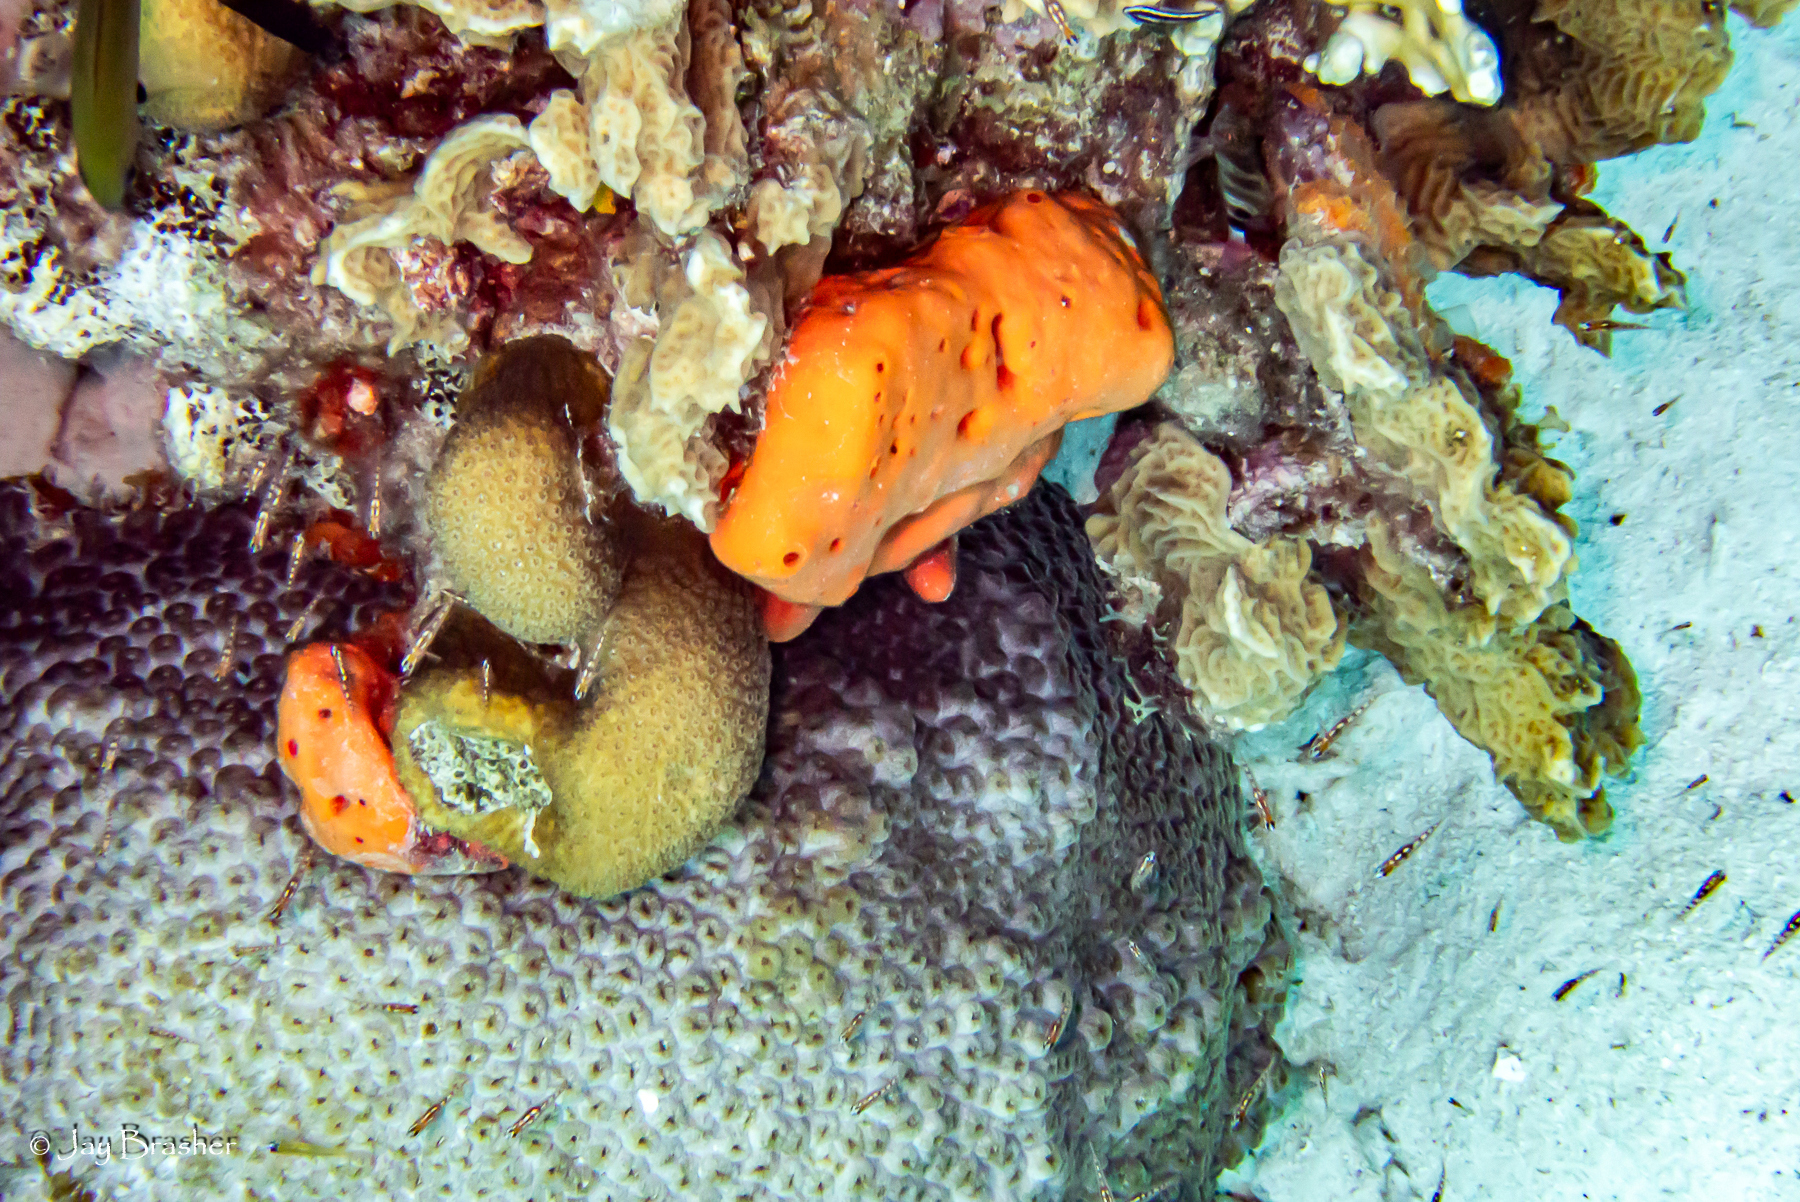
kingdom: Animalia
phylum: Cnidaria
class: Anthozoa
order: Scleractinia
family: Montastraeidae
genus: Montastraea
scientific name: Montastraea cavernosa
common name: Great star coral
